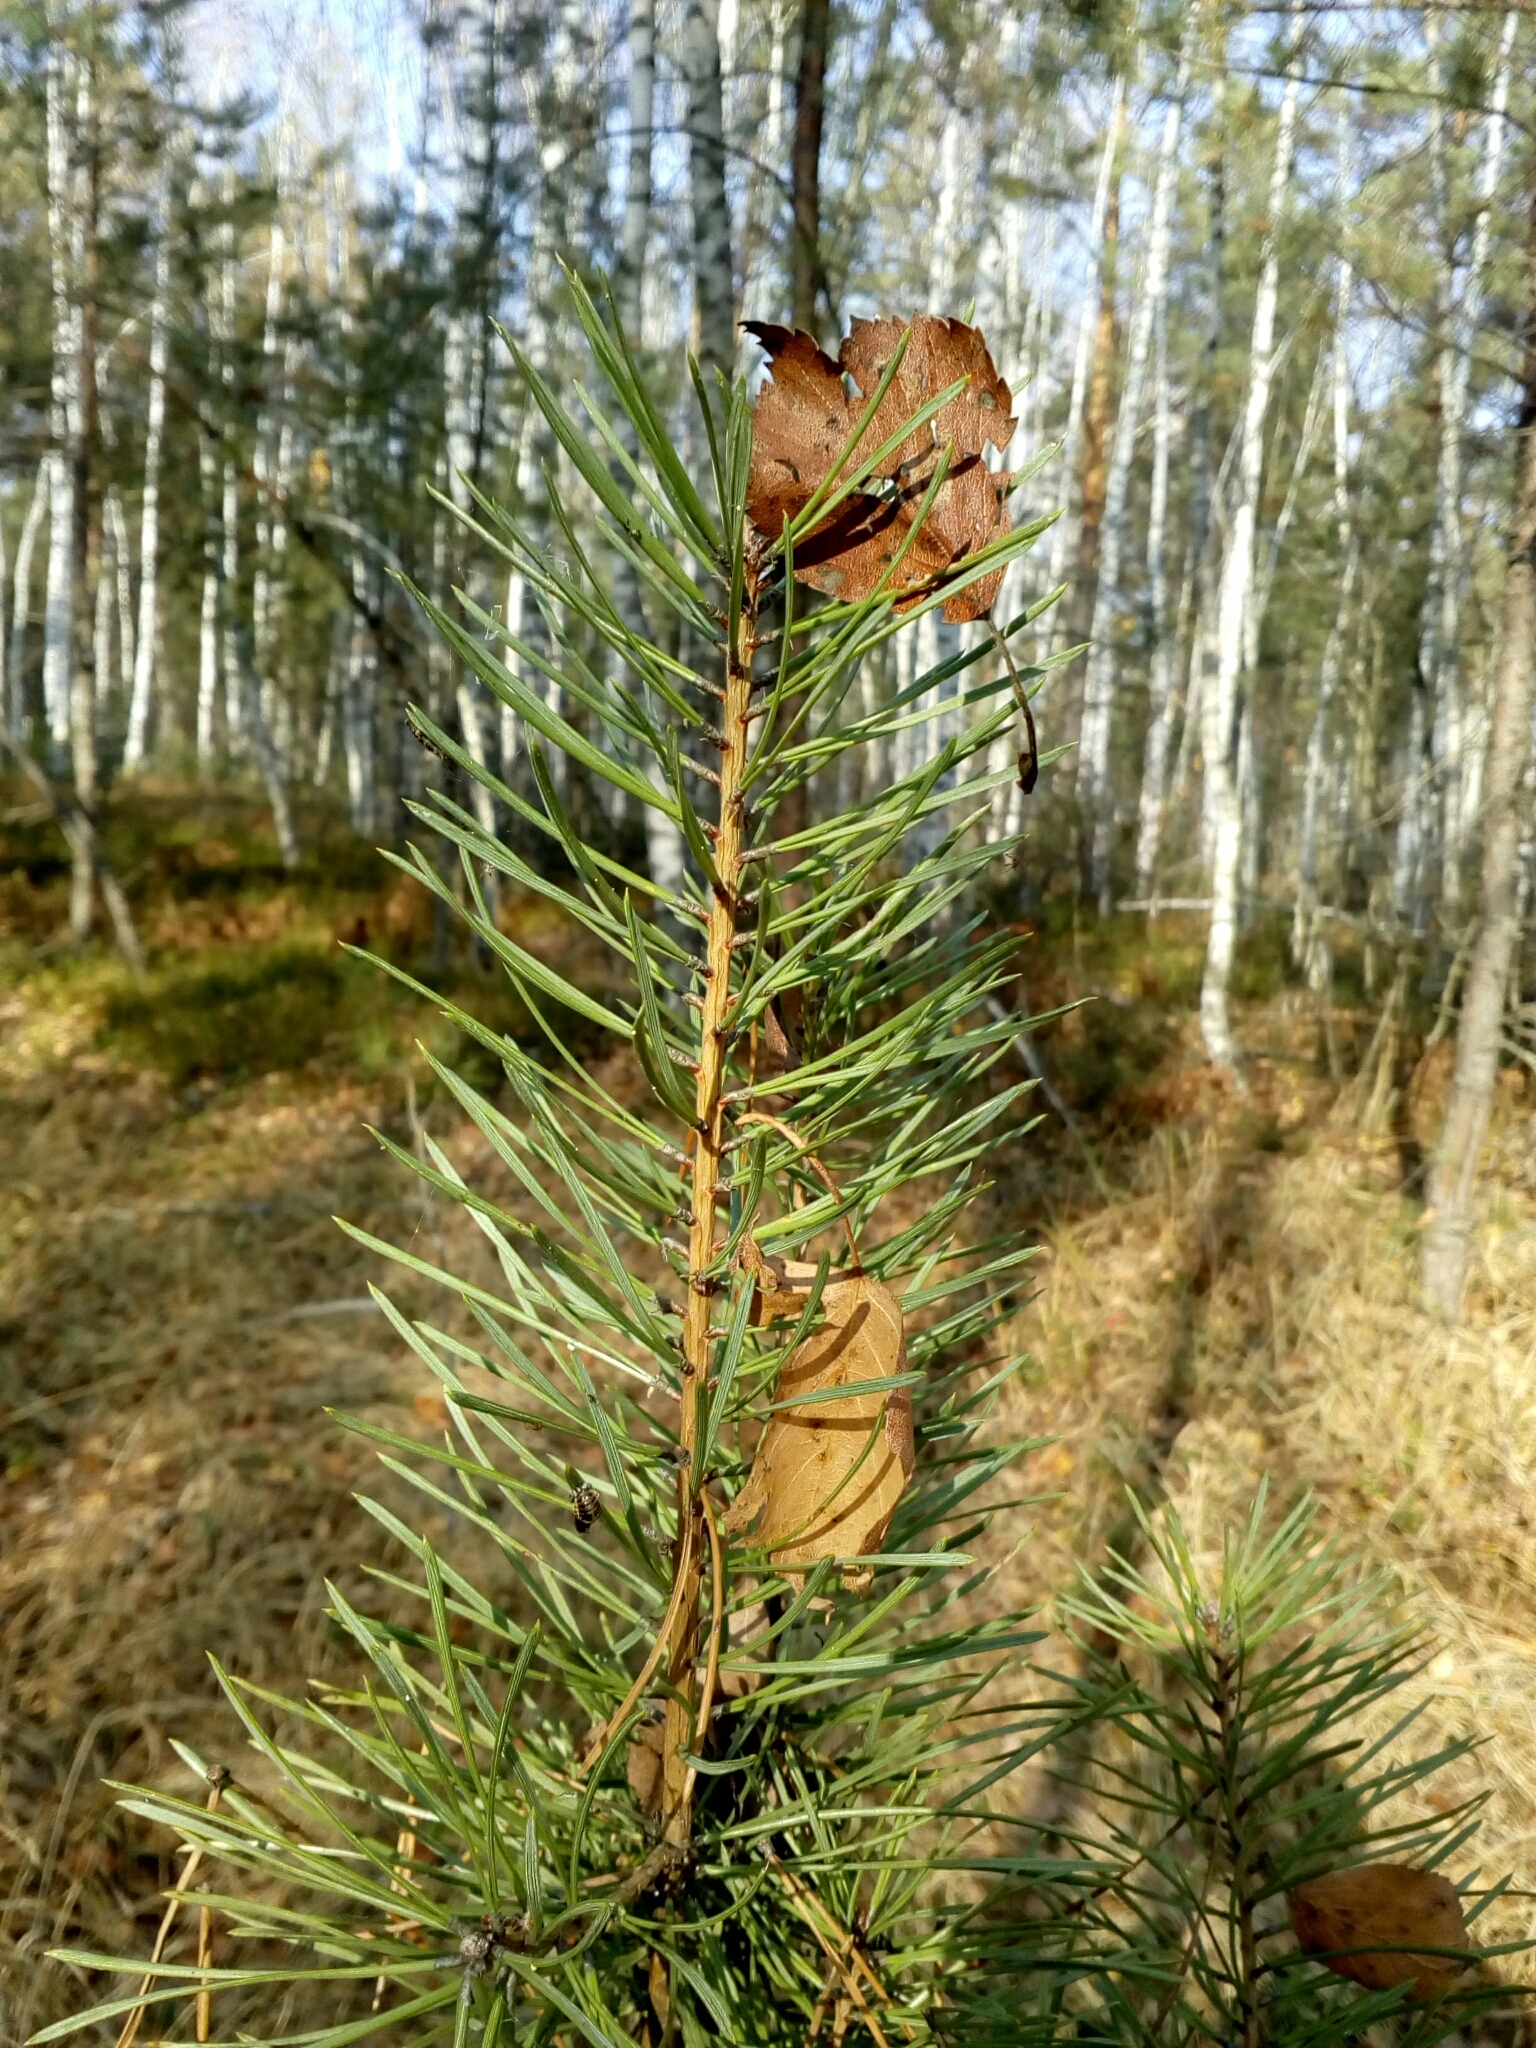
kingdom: Plantae
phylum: Tracheophyta
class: Pinopsida
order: Pinales
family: Pinaceae
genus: Pinus
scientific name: Pinus sylvestris
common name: Scots pine
